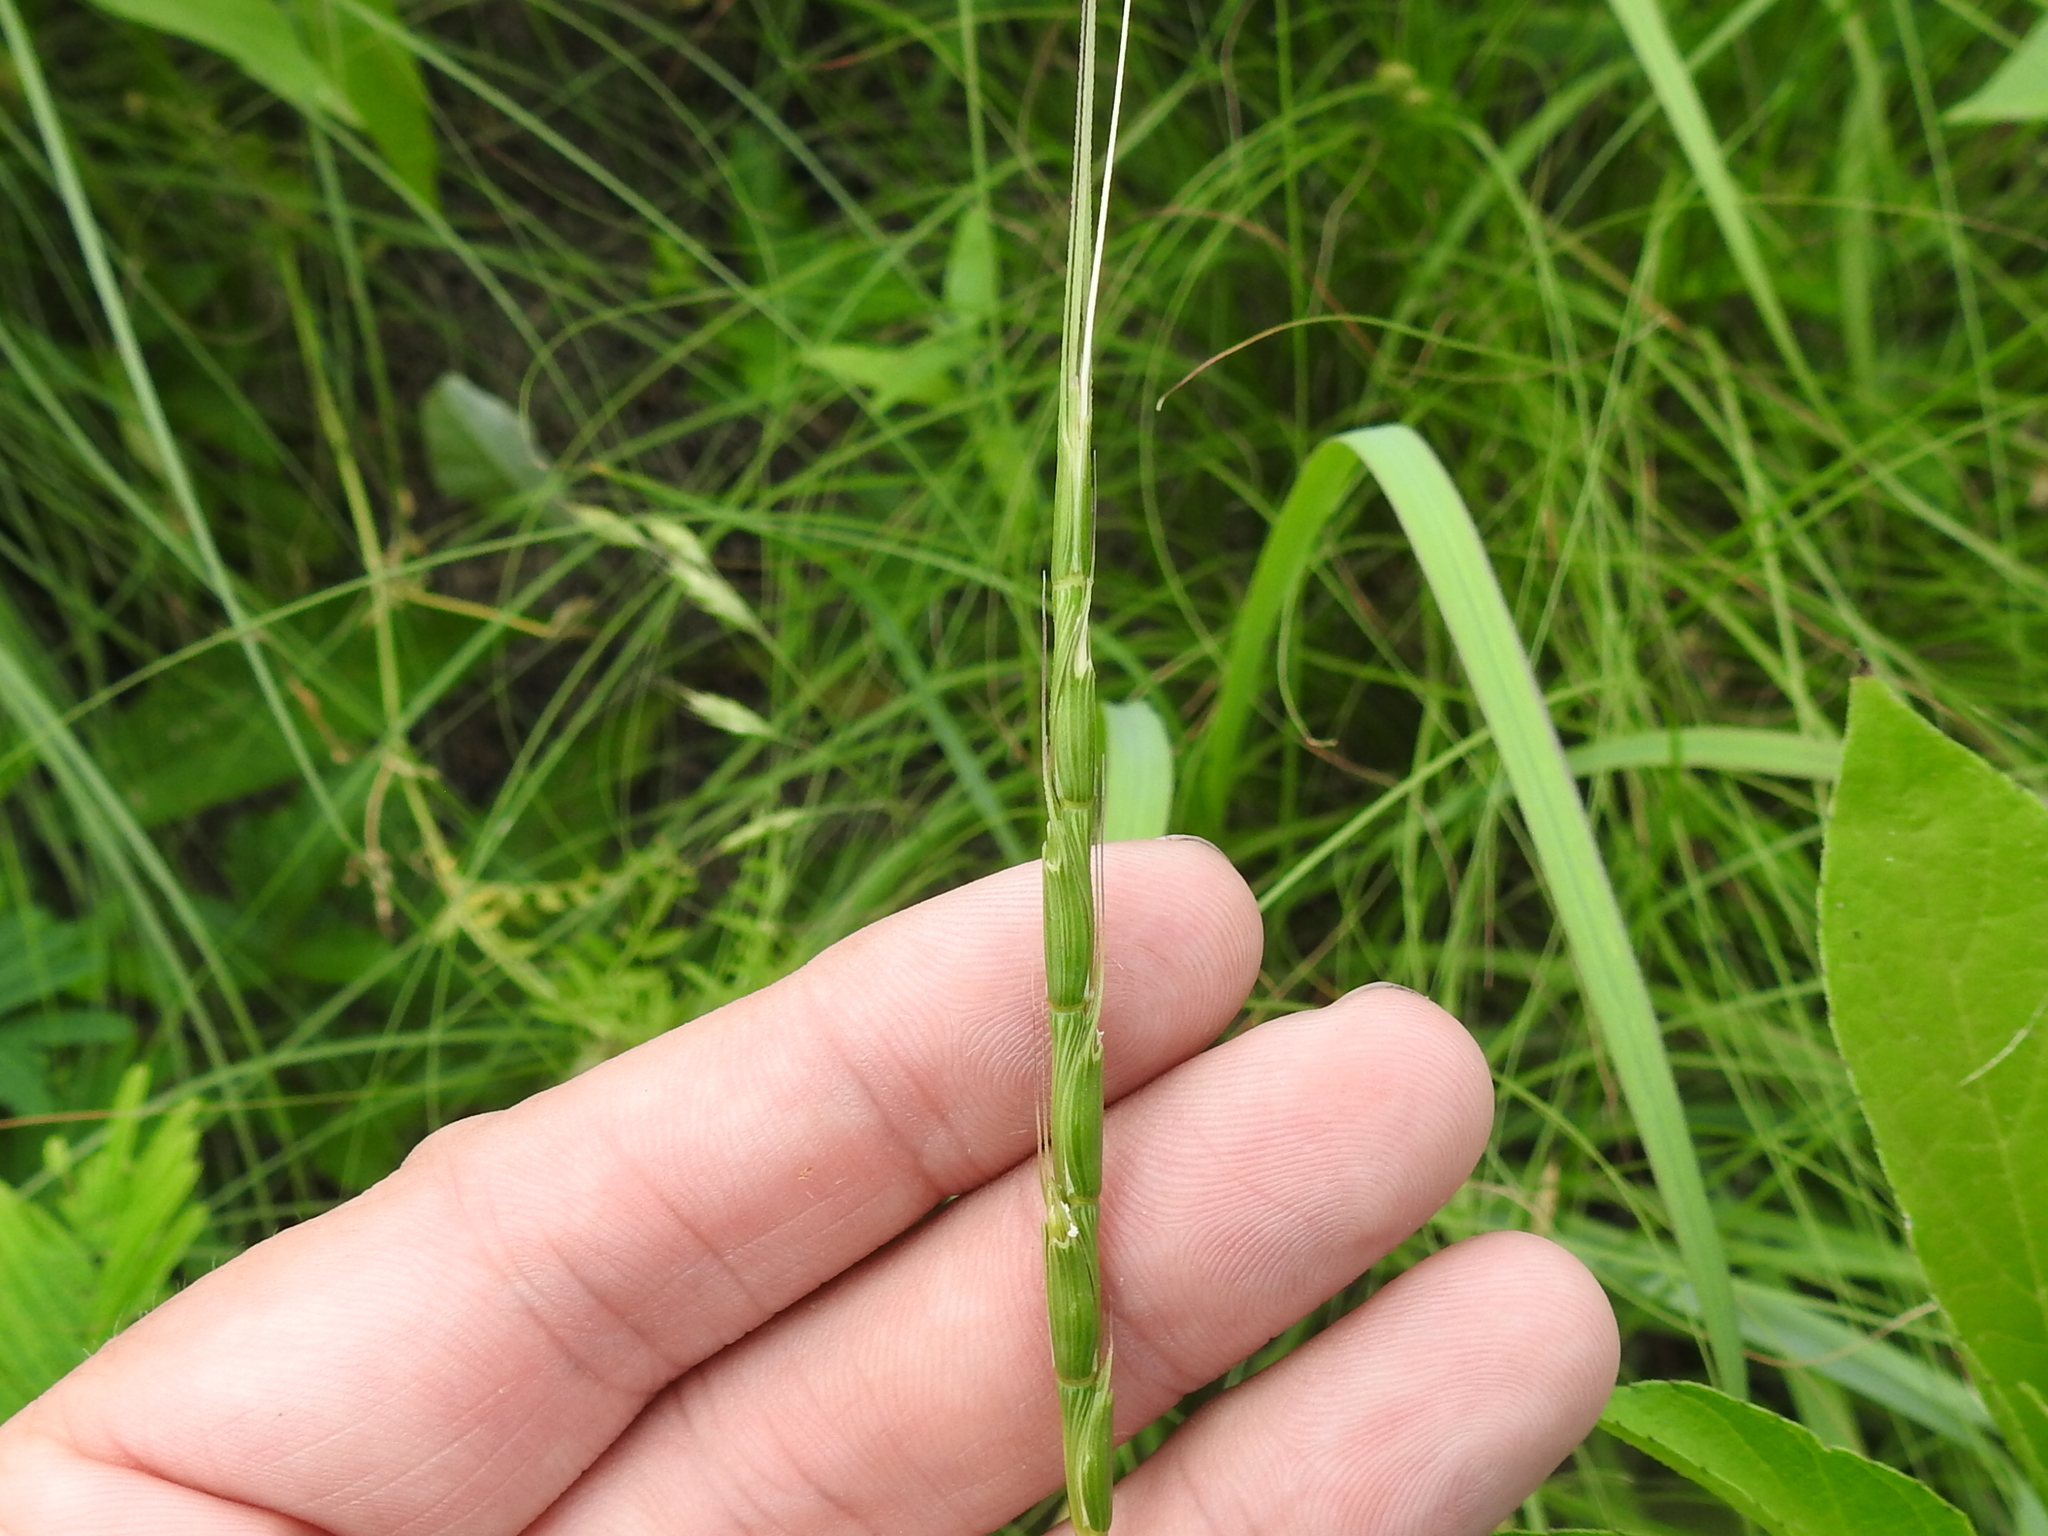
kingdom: Plantae
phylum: Tracheophyta
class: Liliopsida
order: Poales
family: Poaceae
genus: Aegilops
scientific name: Aegilops cylindrica
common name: Jointed goatgrass
